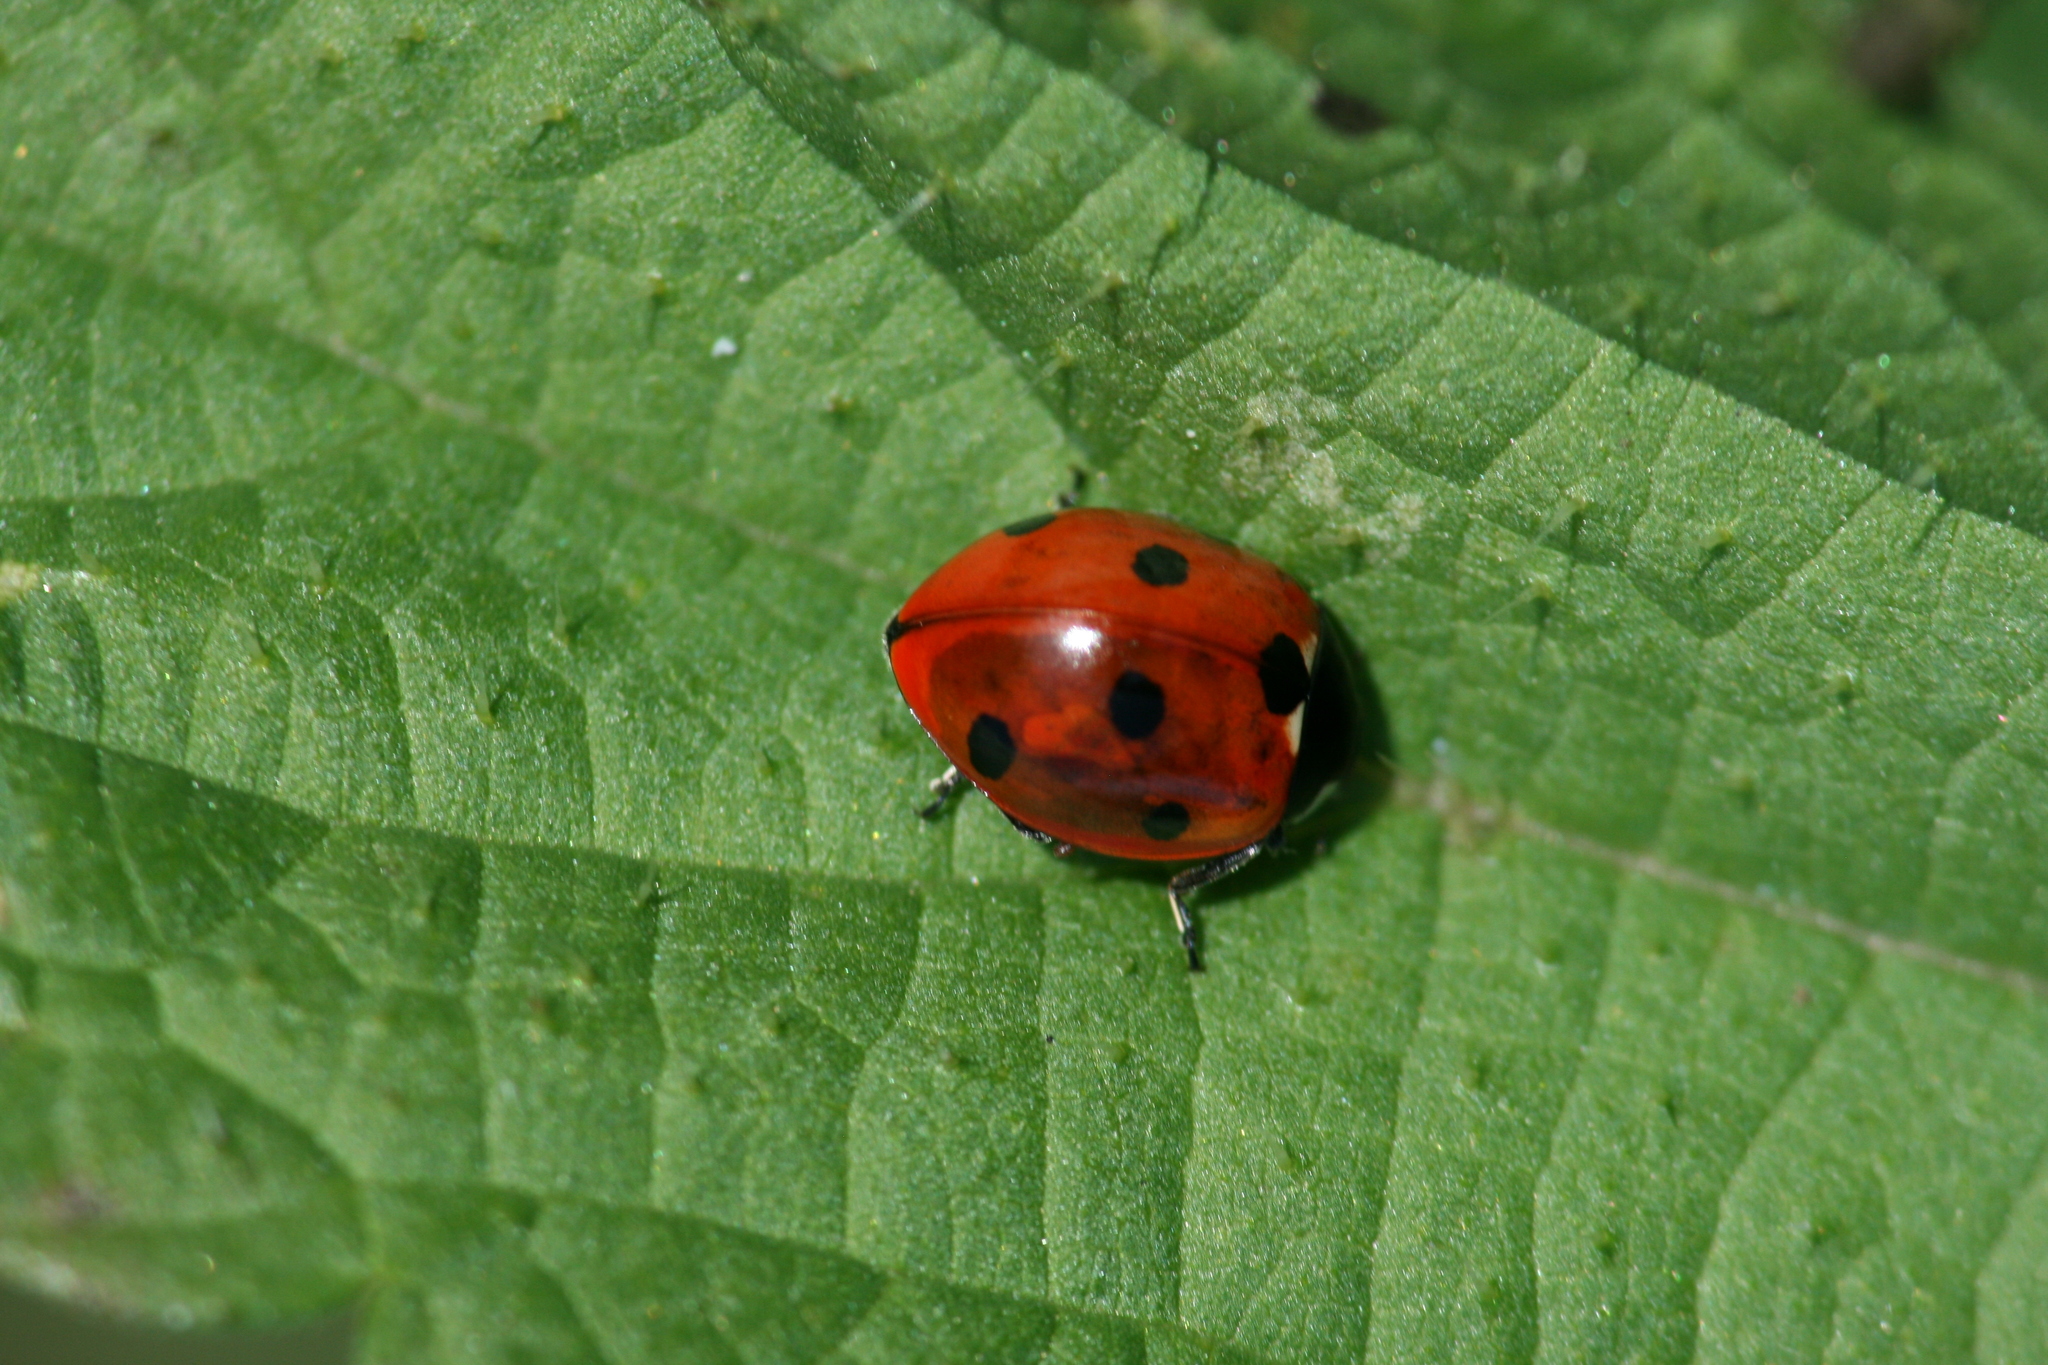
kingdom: Animalia
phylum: Arthropoda
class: Insecta
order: Coleoptera
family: Coccinellidae
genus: Coccinella
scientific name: Coccinella septempunctata
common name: Sevenspotted lady beetle
